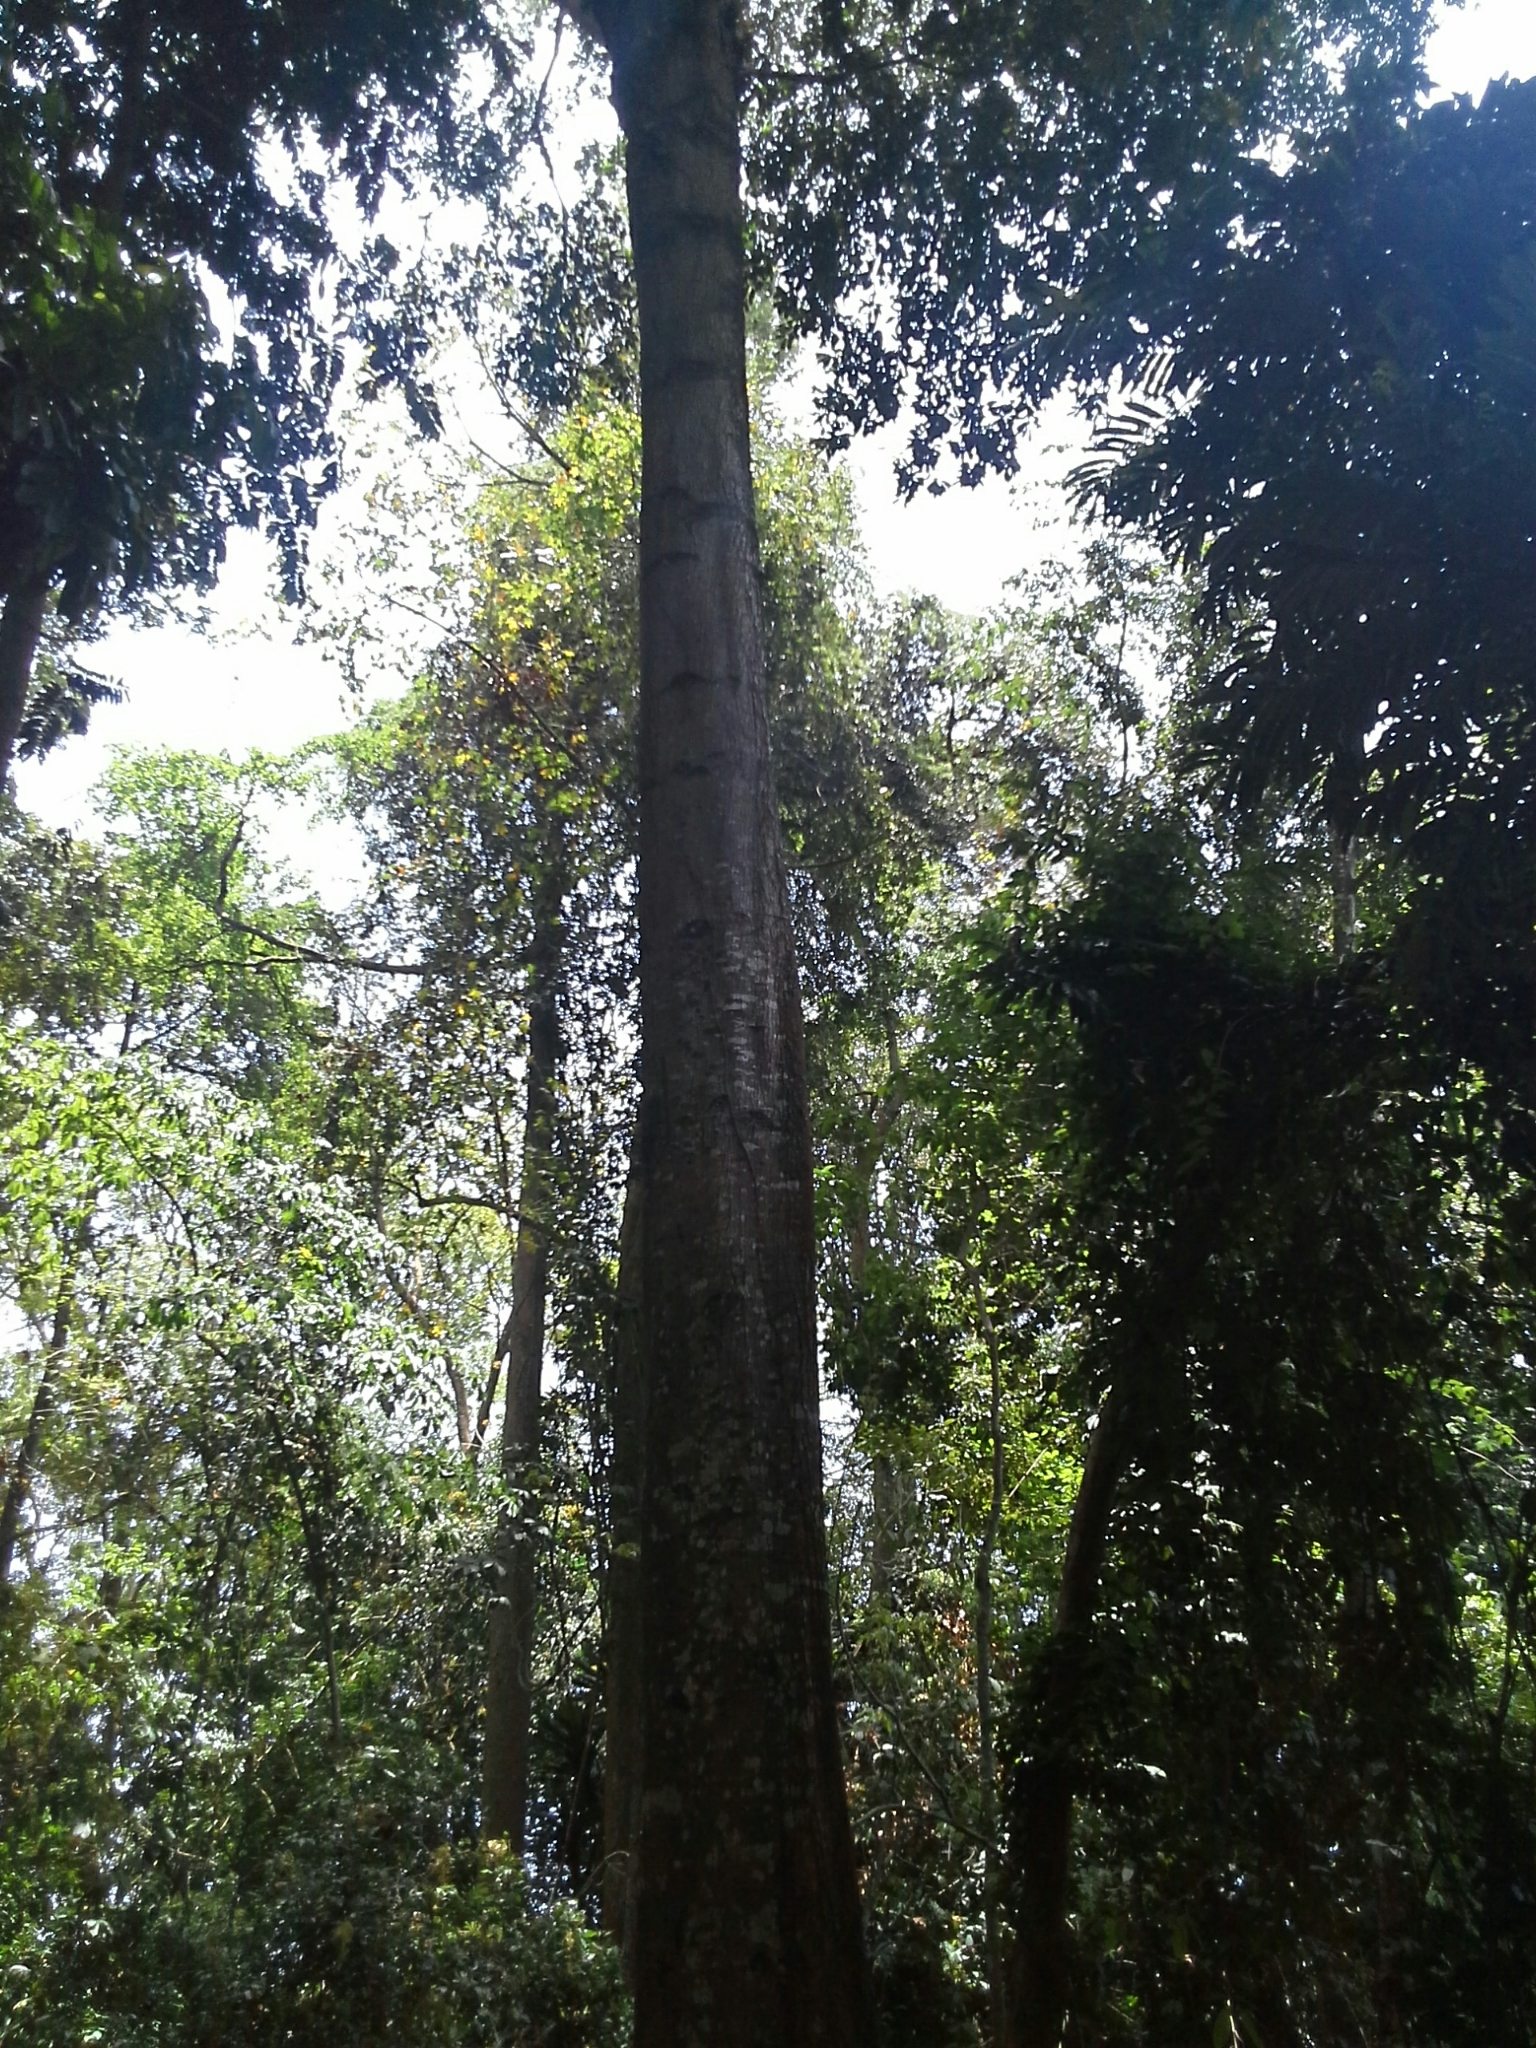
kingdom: Plantae
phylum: Tracheophyta
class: Magnoliopsida
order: Ericales
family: Sapotaceae
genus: Tieghemella
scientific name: Tieghemella heckelii
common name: Cherry mahogany
